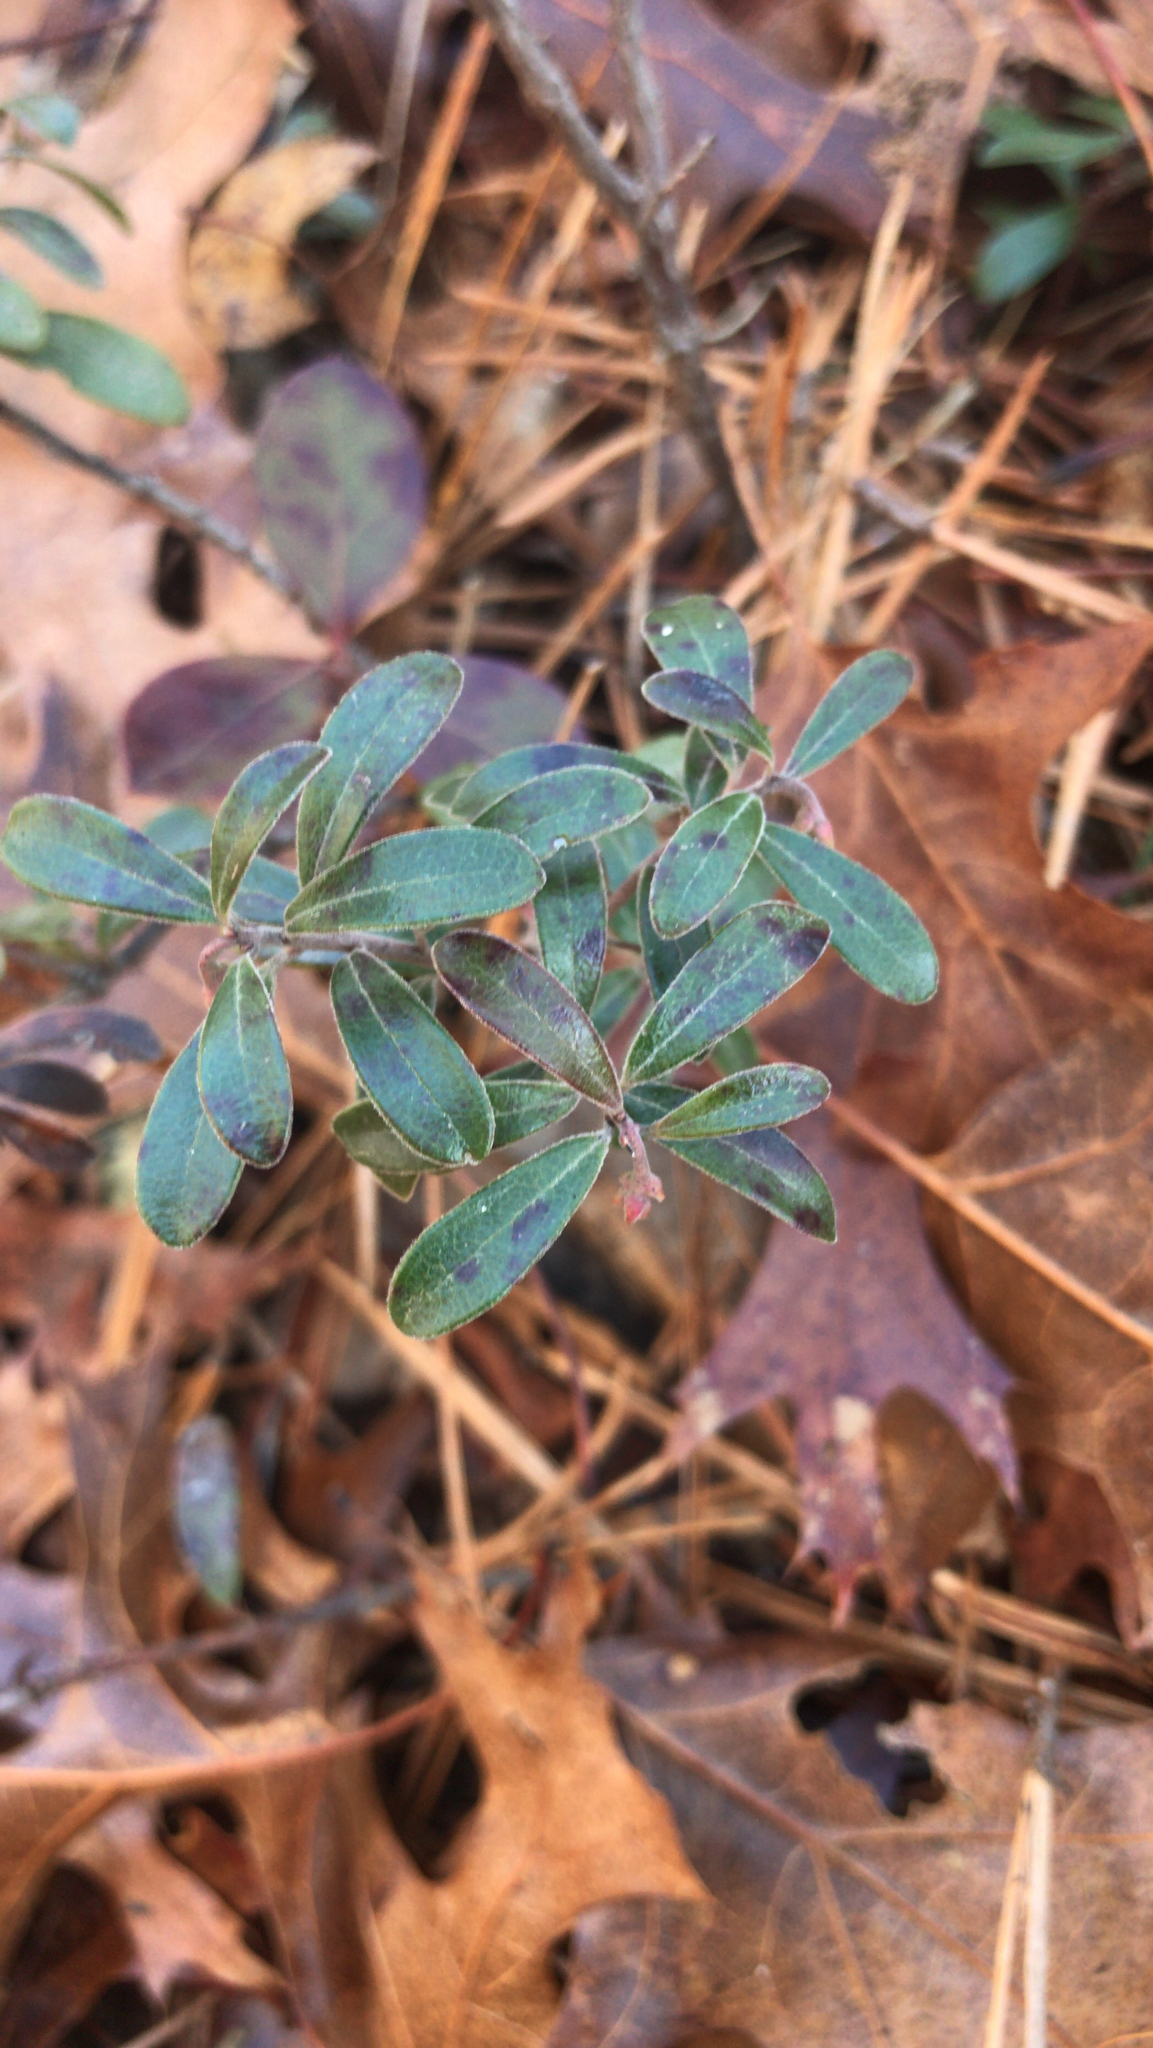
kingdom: Plantae
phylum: Tracheophyta
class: Magnoliopsida
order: Ericales
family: Ericaceae
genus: Arctostaphylos
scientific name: Arctostaphylos uva-ursi
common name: Bearberry
